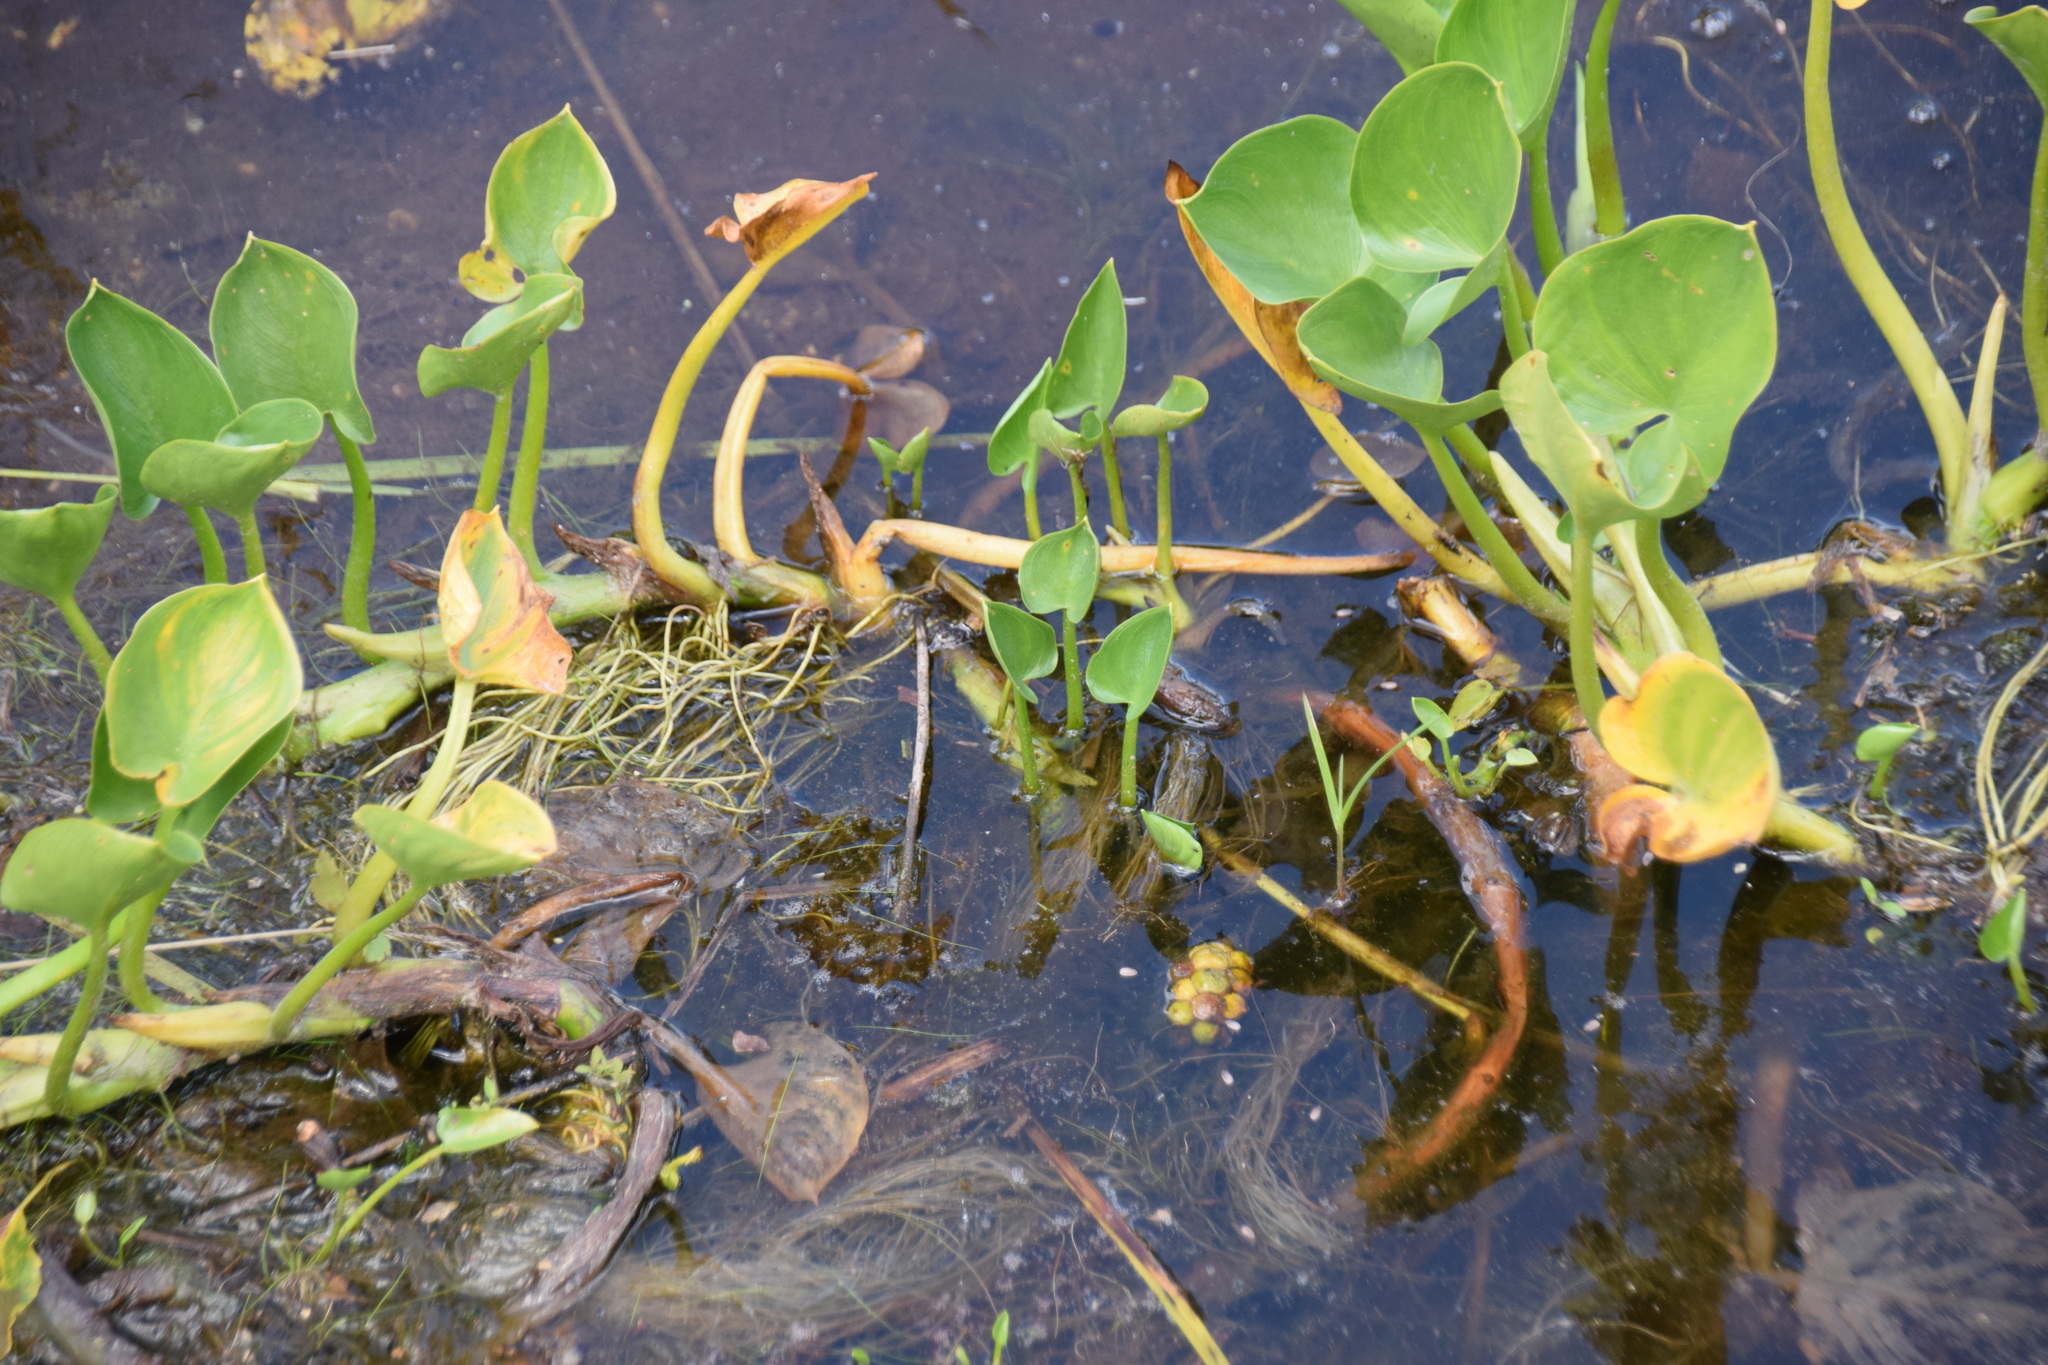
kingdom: Plantae
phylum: Tracheophyta
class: Liliopsida
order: Alismatales
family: Araceae
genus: Calla
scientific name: Calla palustris
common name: Bog arum
